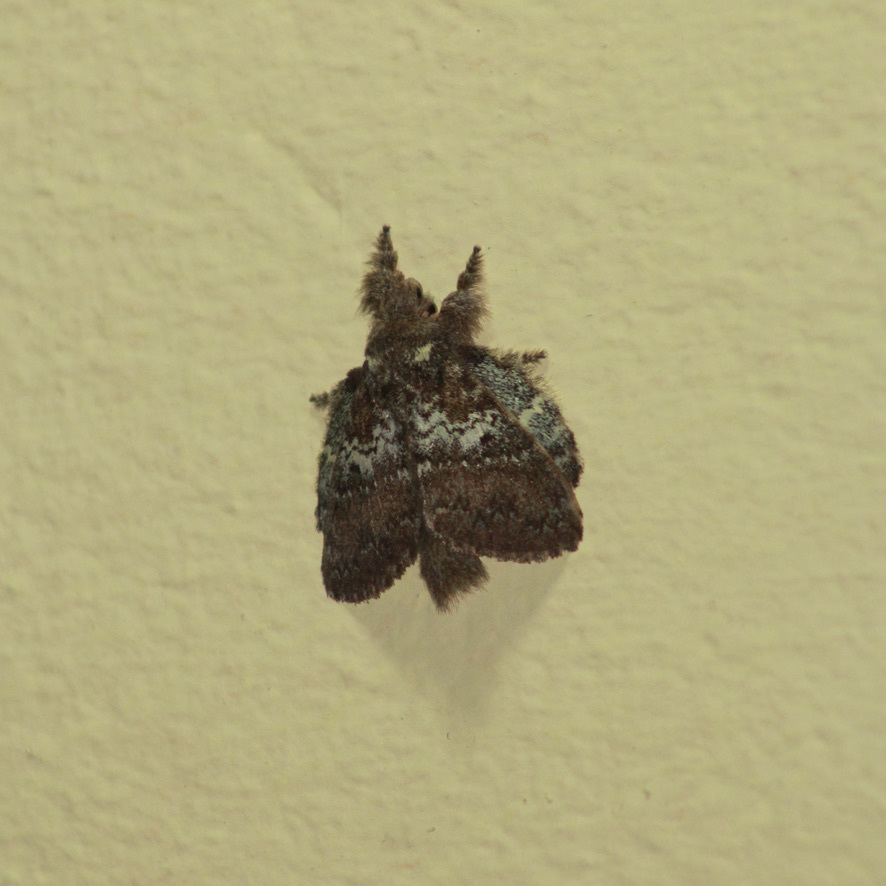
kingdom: Animalia
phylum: Arthropoda
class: Insecta
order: Lepidoptera
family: Lasiocampidae
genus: Euglyphis
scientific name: Euglyphis mediana
